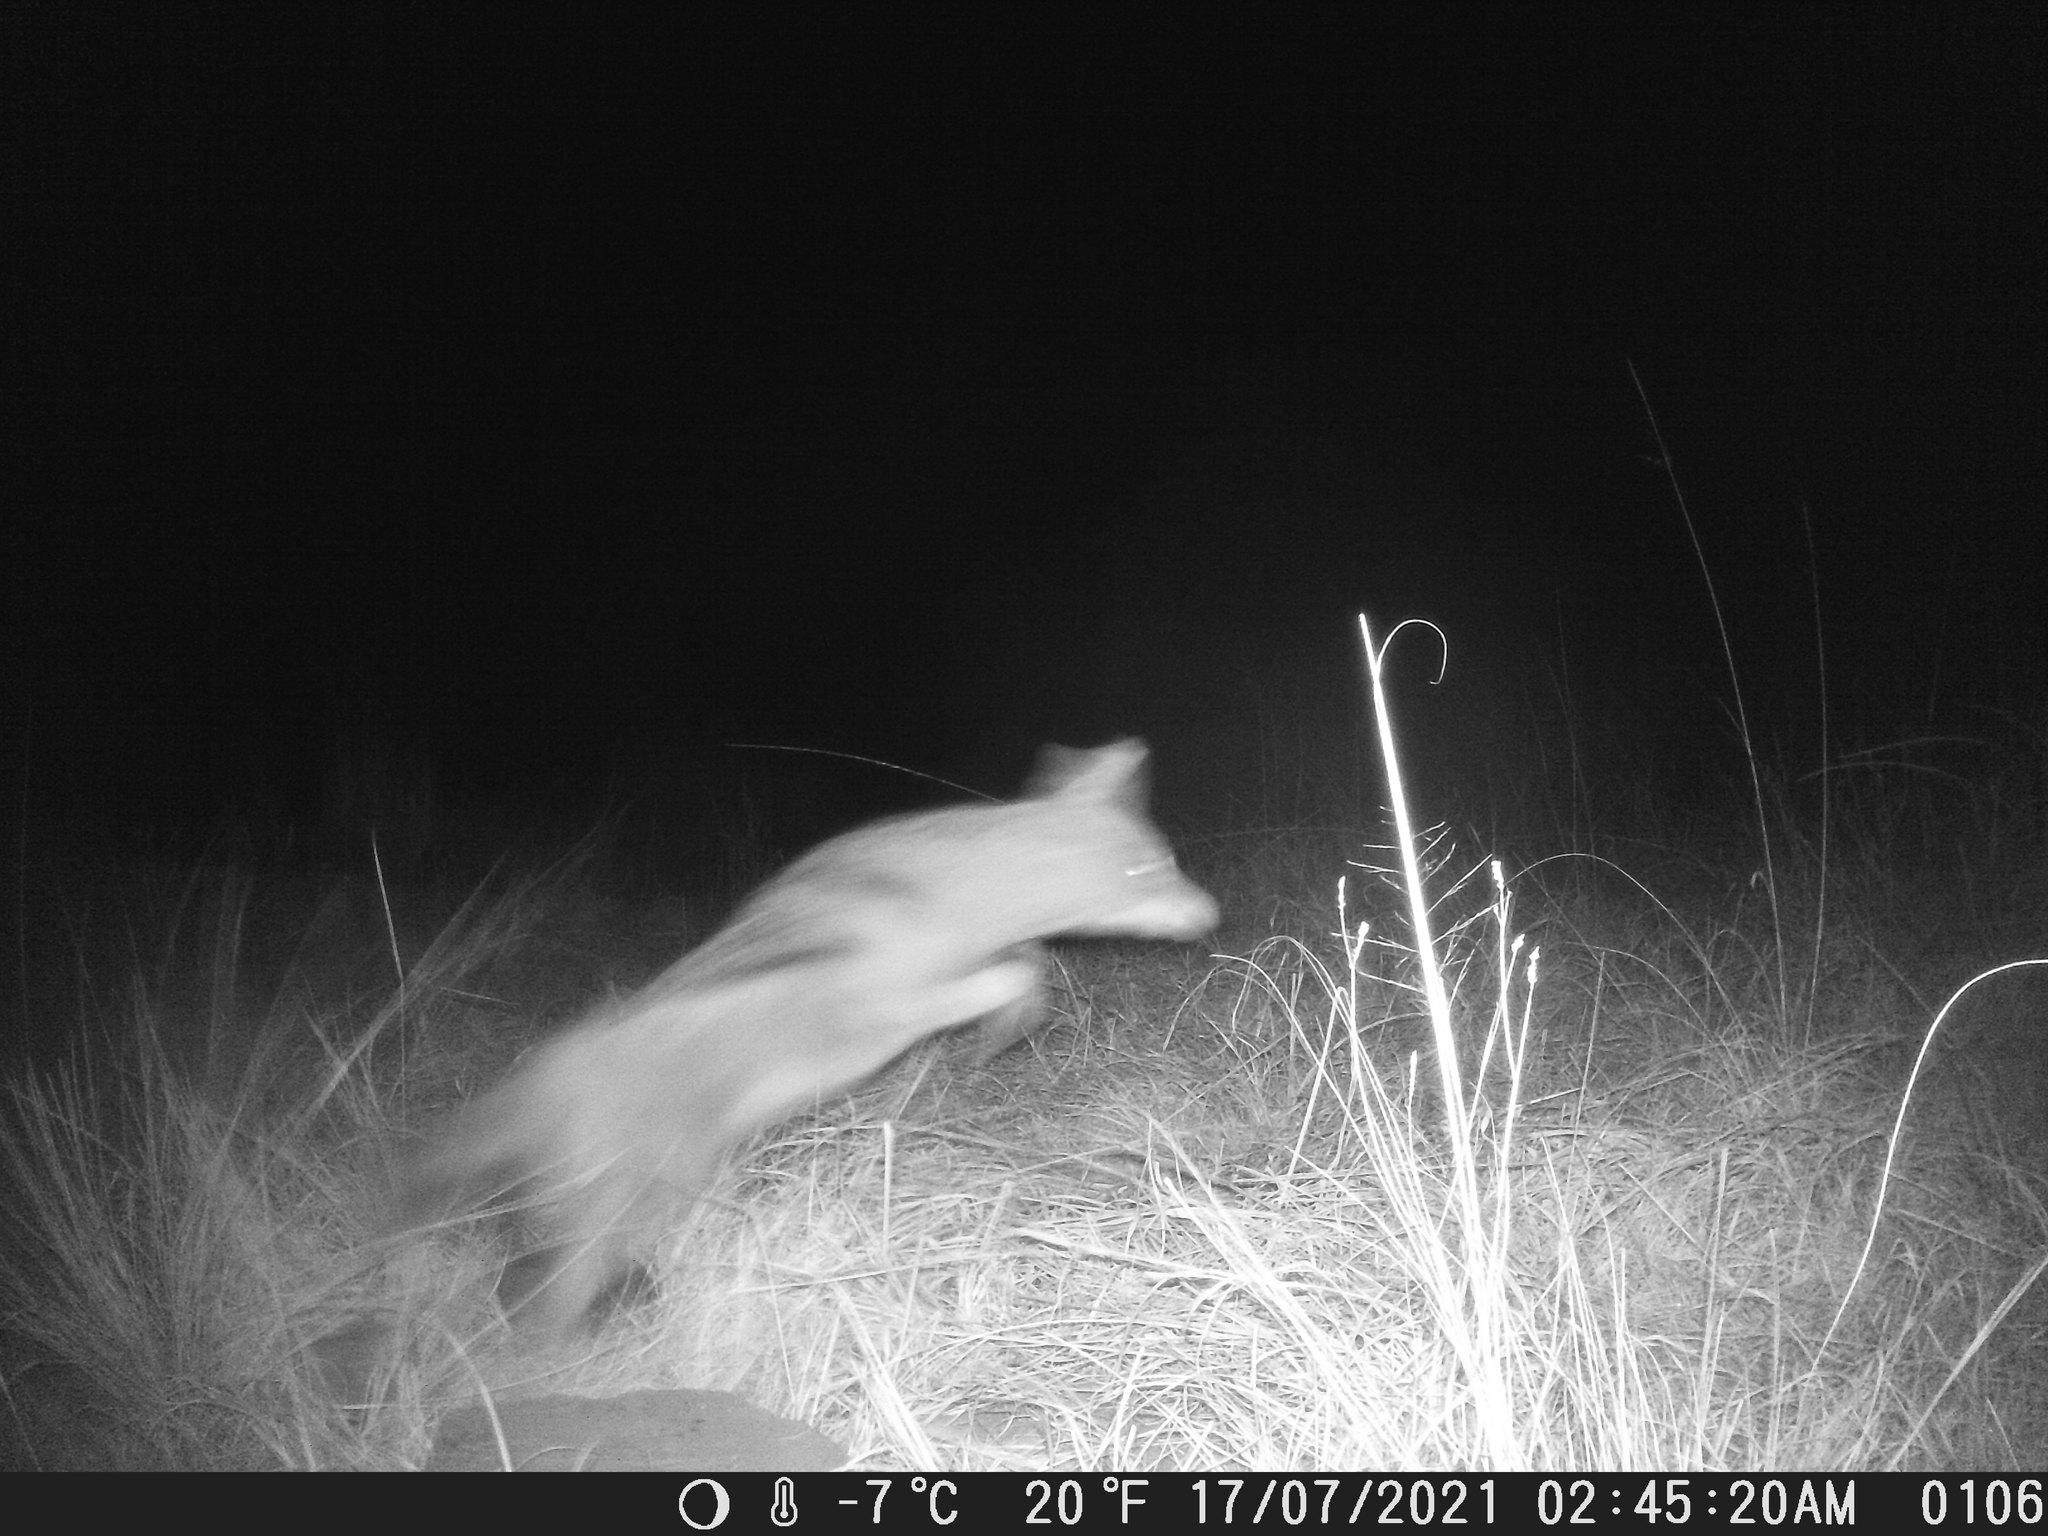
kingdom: Animalia
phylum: Chordata
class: Mammalia
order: Carnivora
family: Canidae
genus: Lupulella
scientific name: Lupulella
